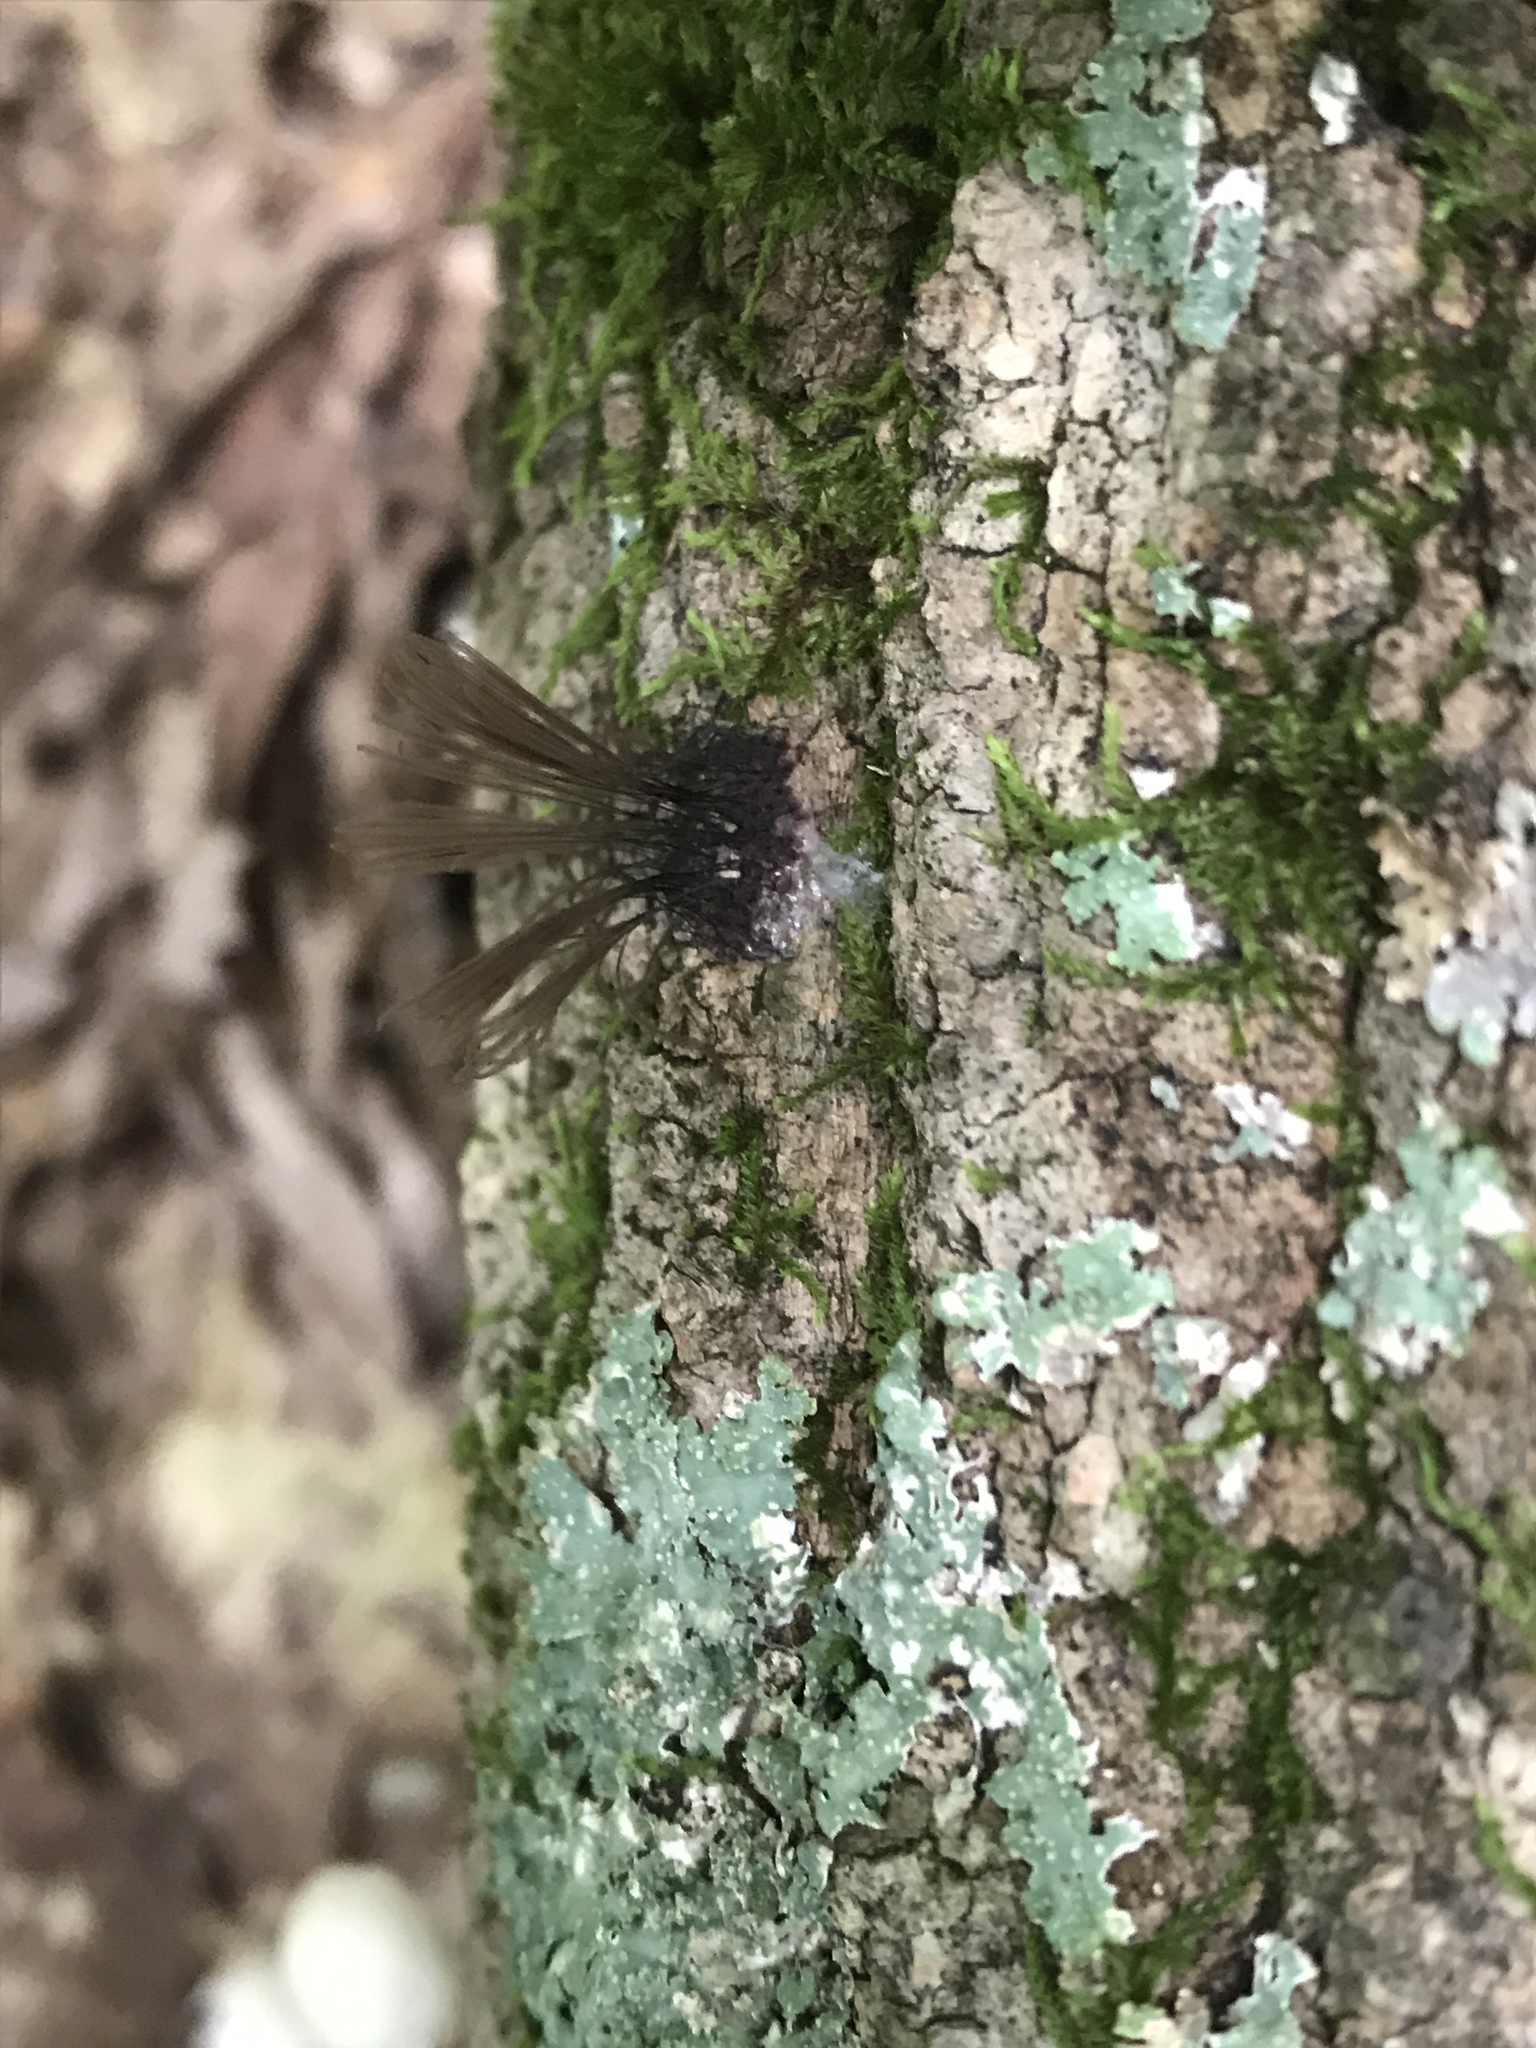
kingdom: Protozoa
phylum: Mycetozoa
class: Myxomycetes
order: Stemonitidales
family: Stemonitidaceae
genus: Stemonitis
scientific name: Stemonitis splendens
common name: Chocolate tube slime
